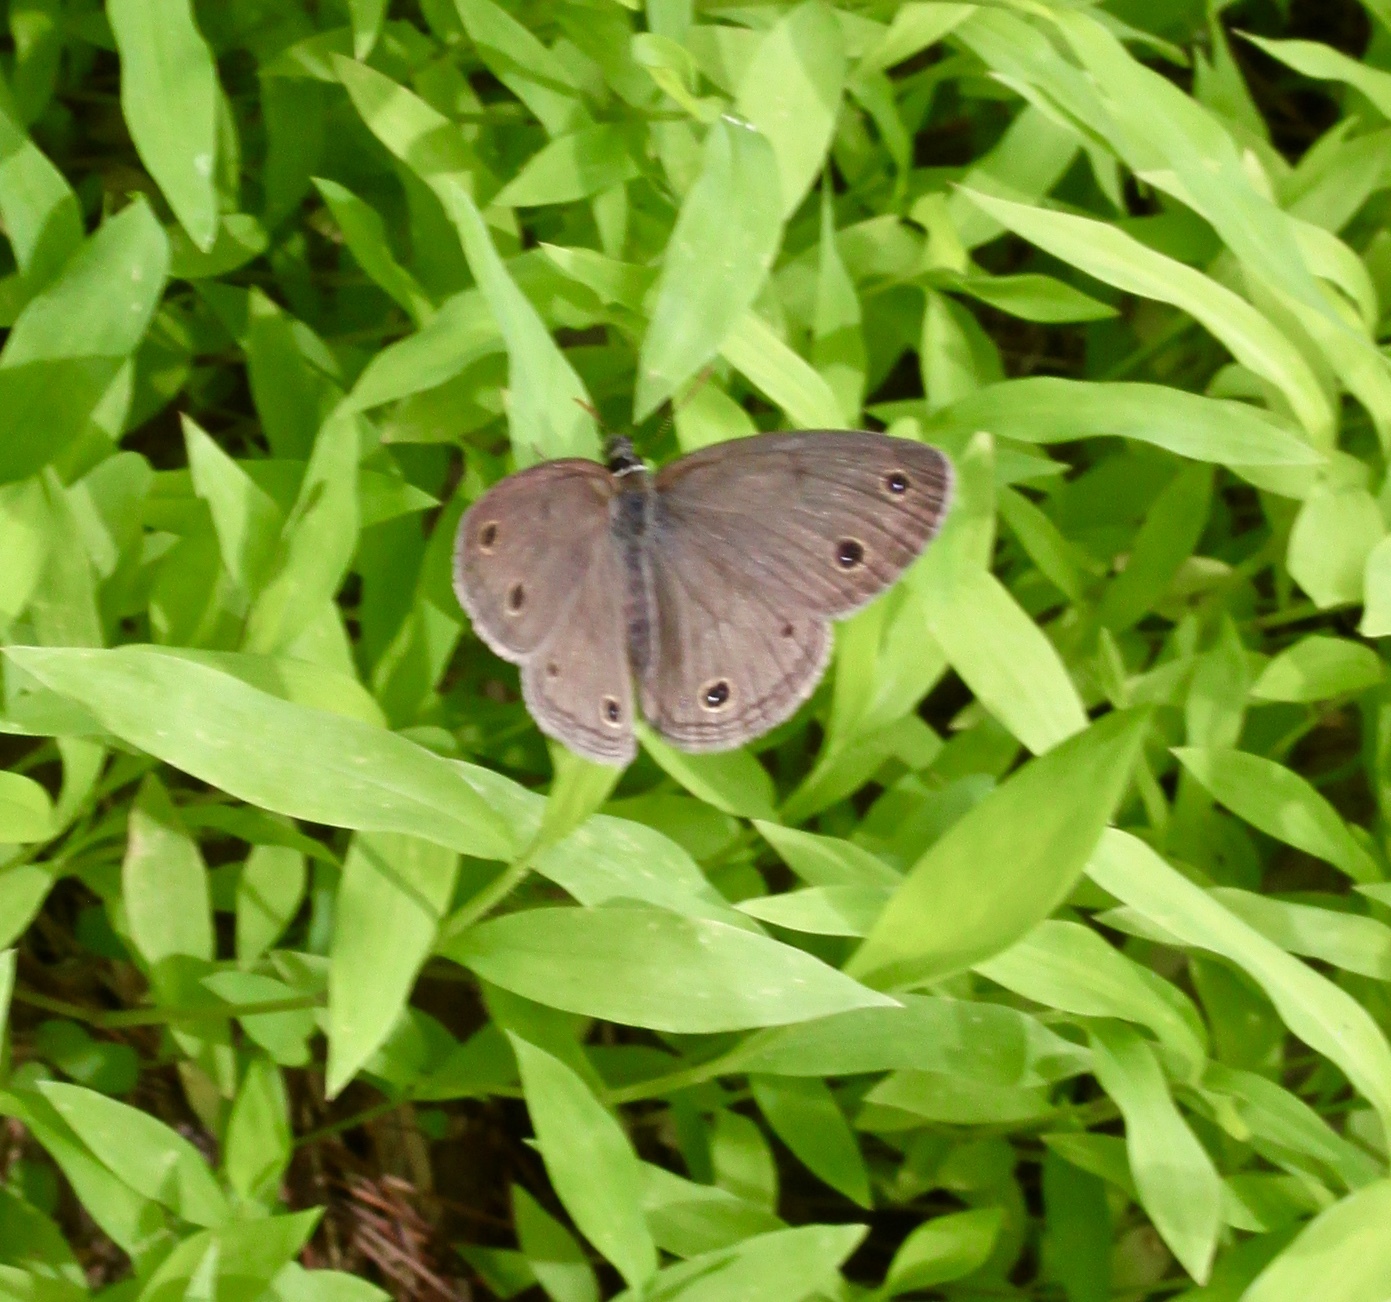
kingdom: Animalia
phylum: Arthropoda
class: Insecta
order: Lepidoptera
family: Nymphalidae
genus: Euptychia
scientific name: Euptychia cymela
